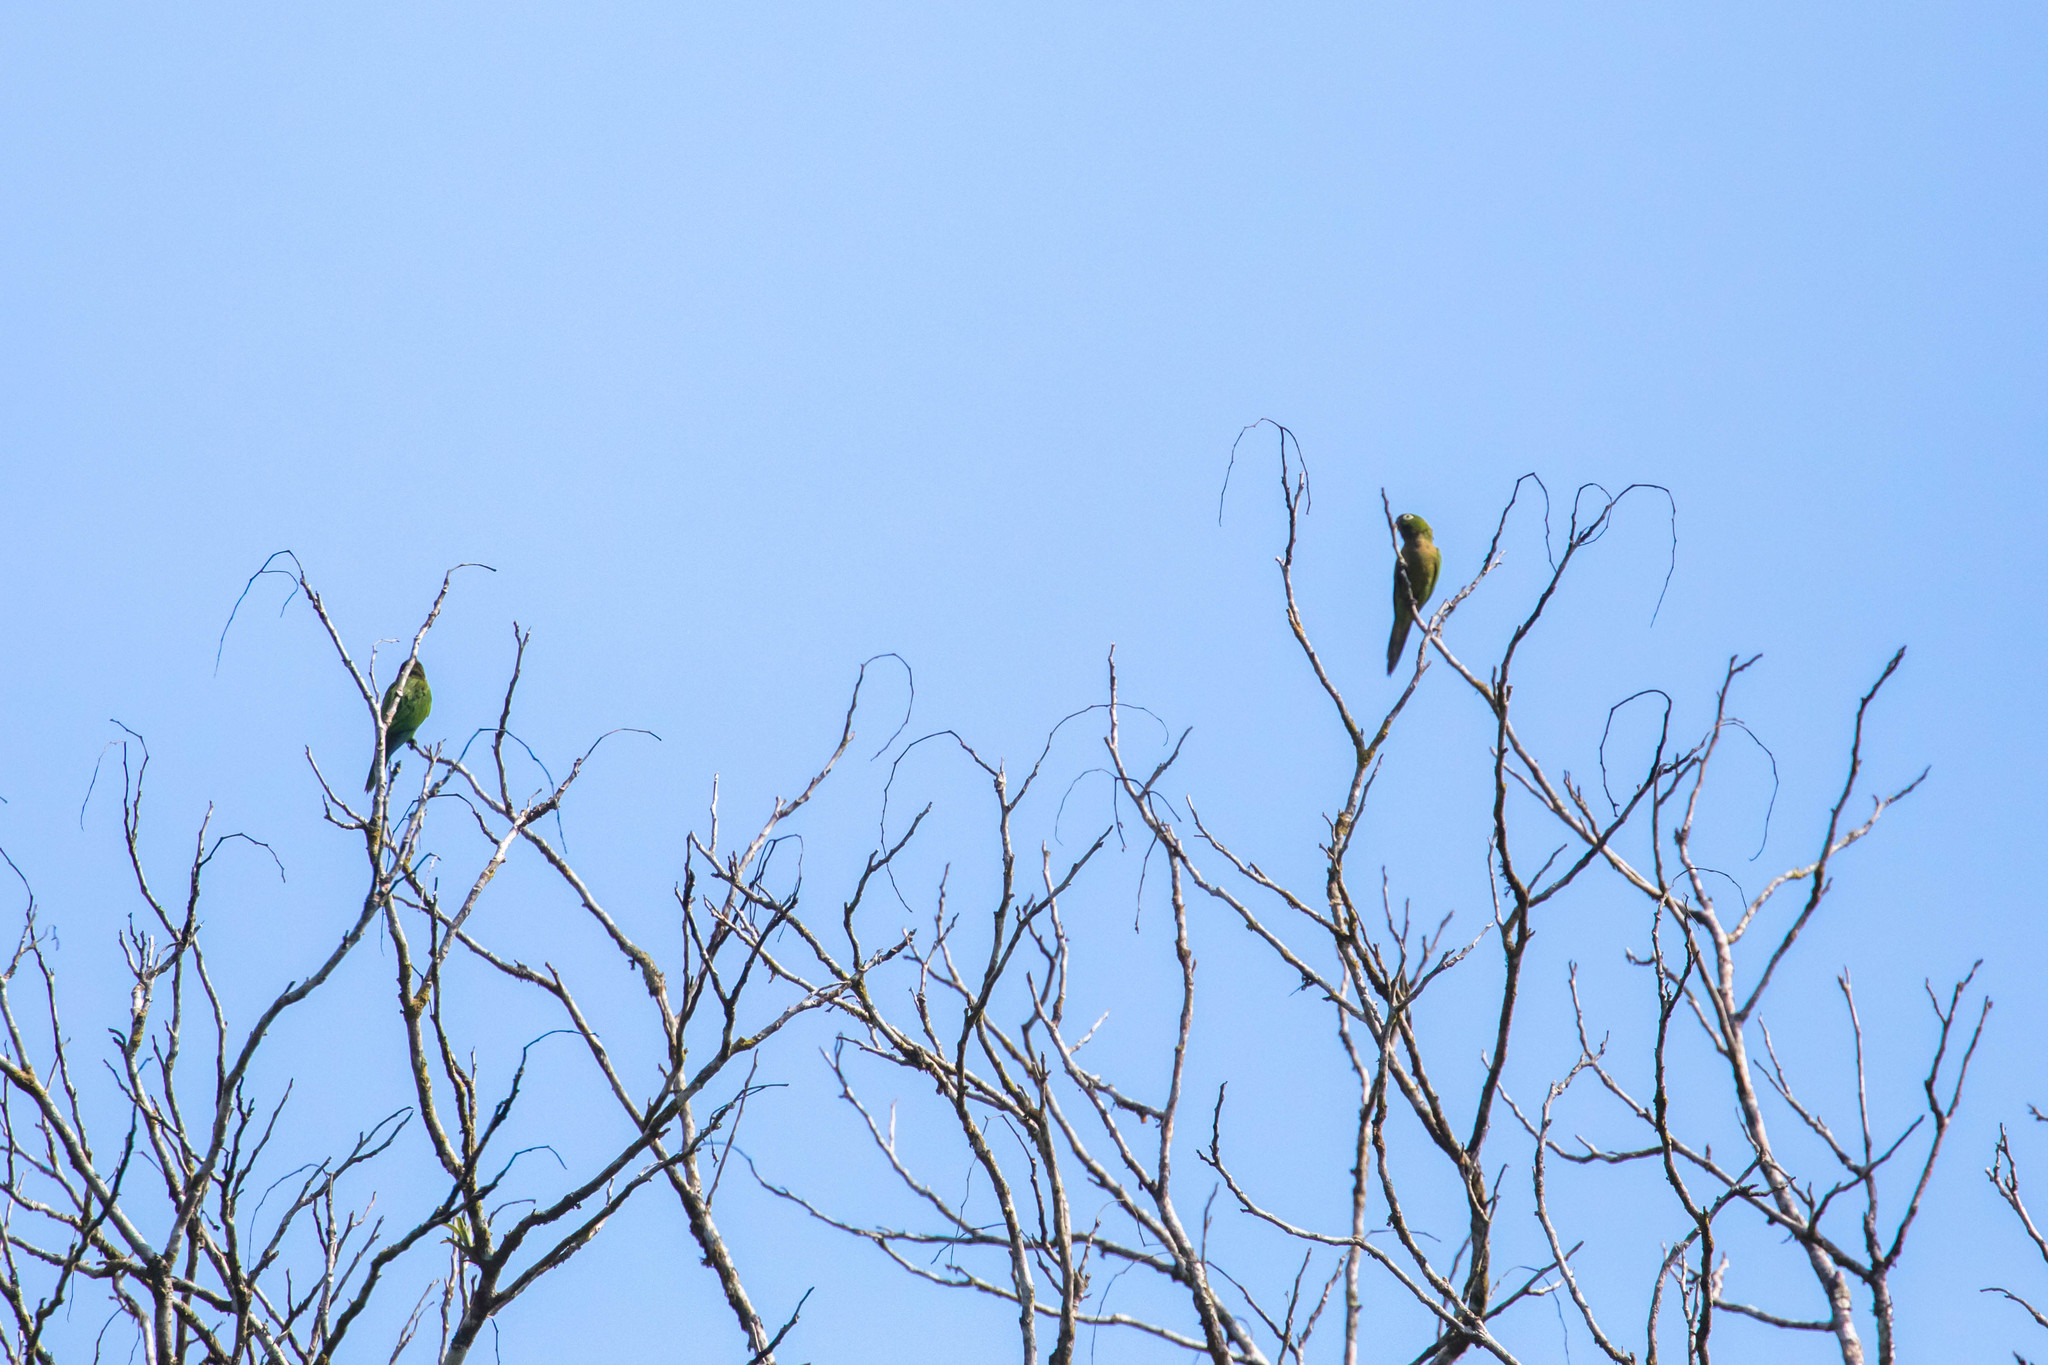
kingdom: Animalia
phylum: Chordata
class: Aves
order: Psittaciformes
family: Psittacidae
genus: Aratinga
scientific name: Aratinga nana
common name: Olive-throated parakeet
